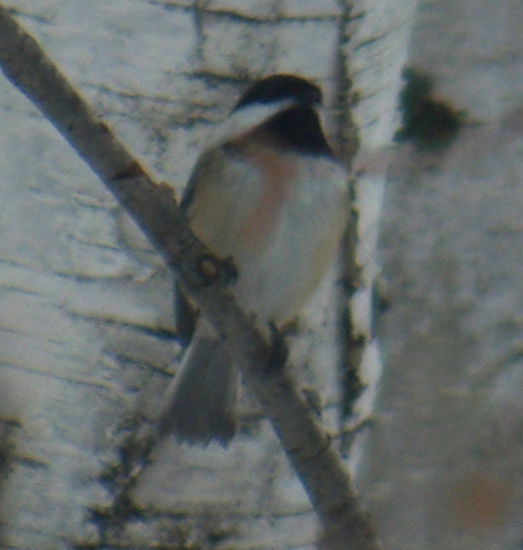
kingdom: Animalia
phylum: Chordata
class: Aves
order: Passeriformes
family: Paridae
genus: Poecile
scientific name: Poecile atricapillus
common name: Black-capped chickadee
